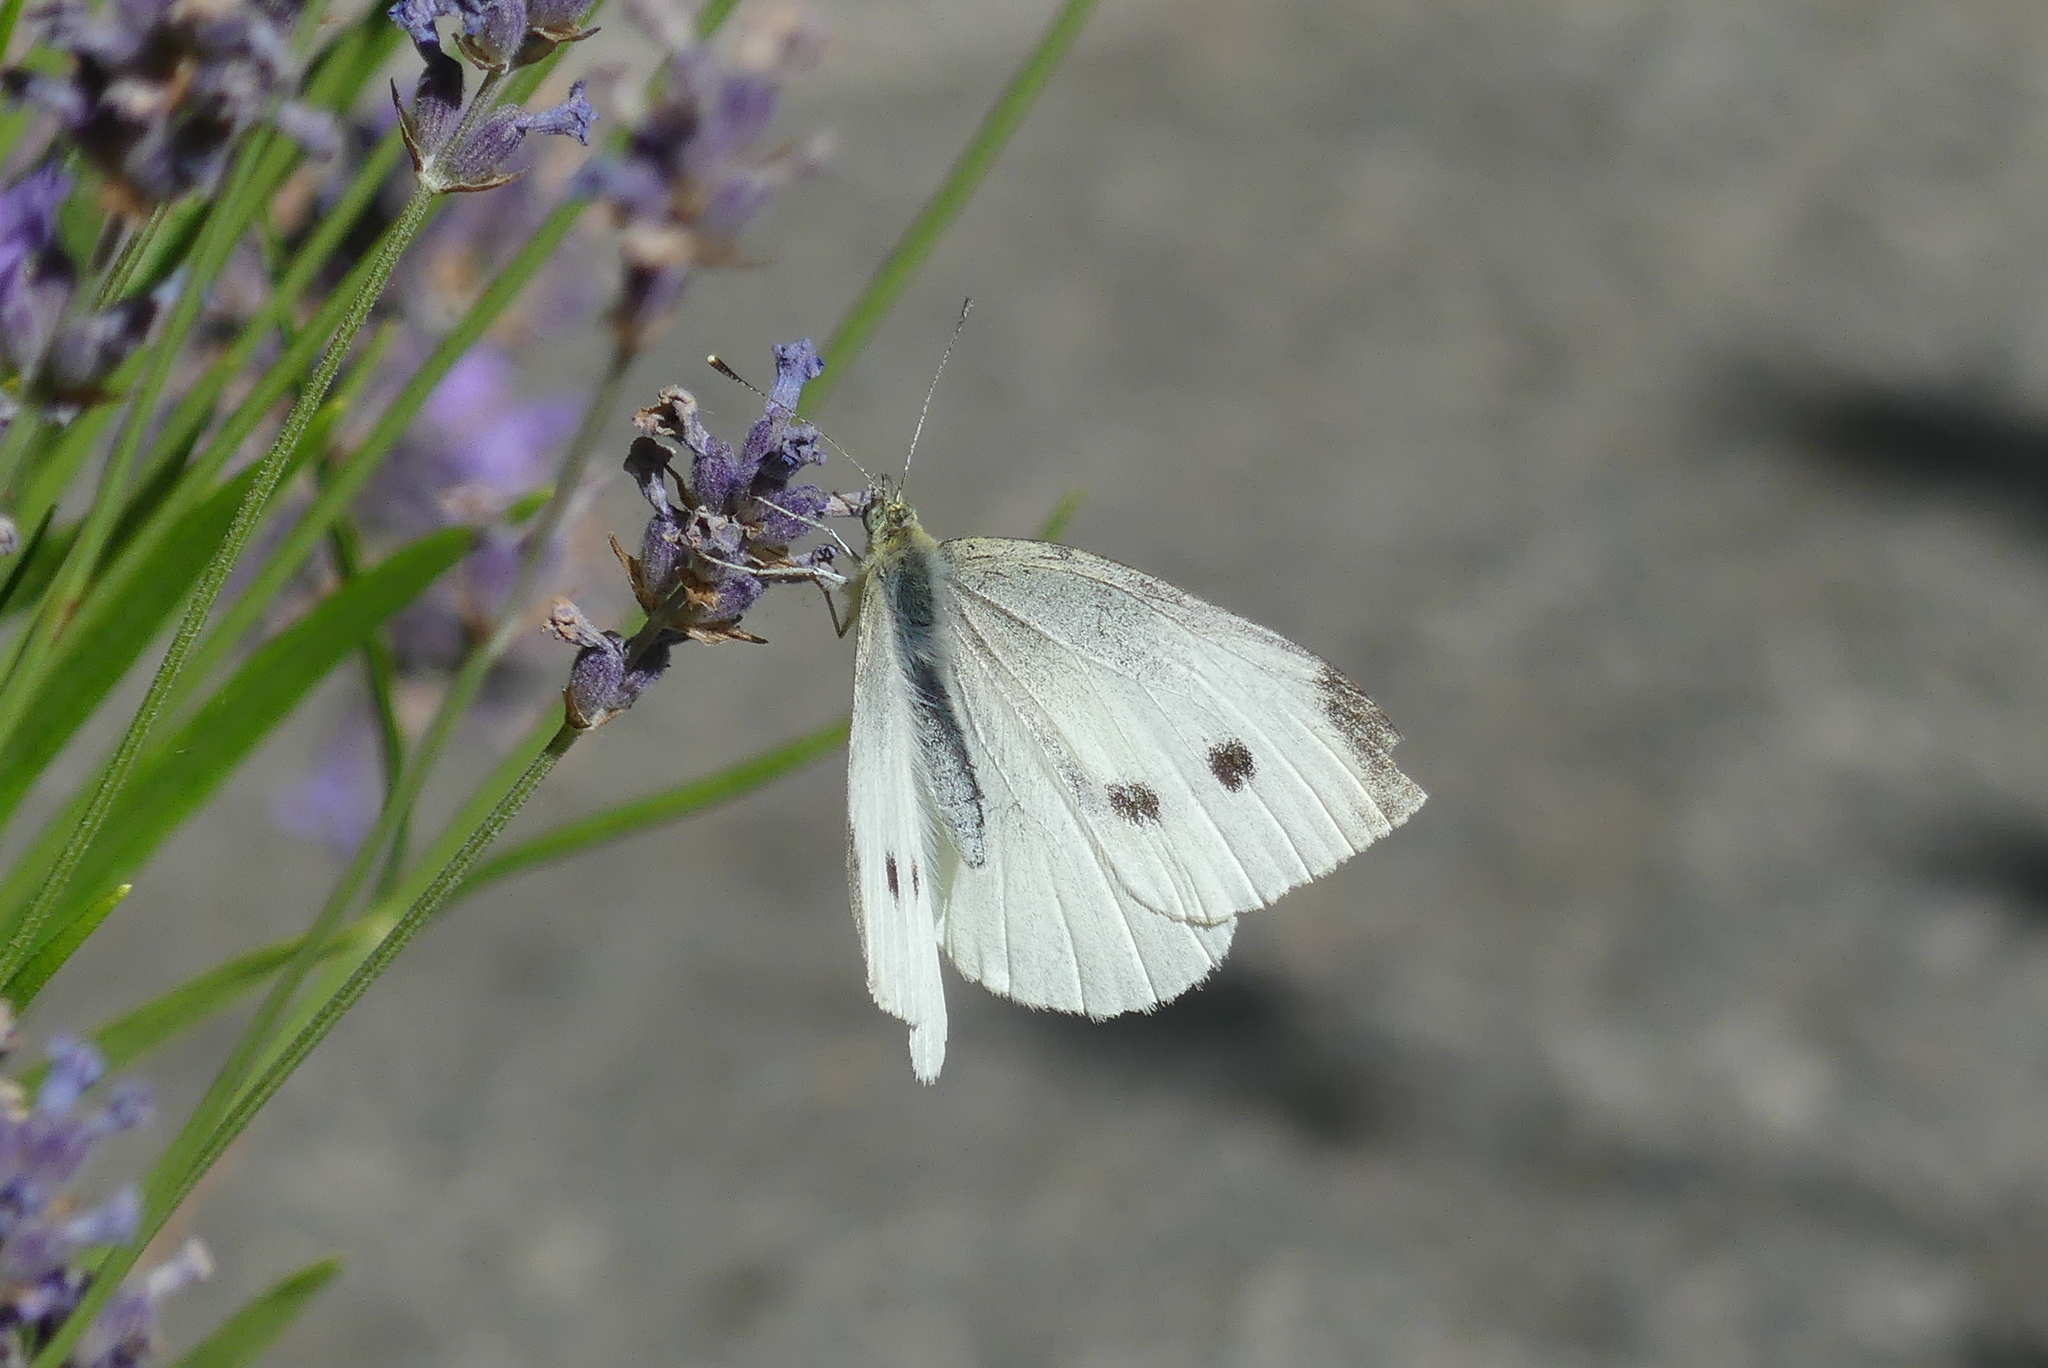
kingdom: Animalia
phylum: Arthropoda
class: Insecta
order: Lepidoptera
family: Pieridae
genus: Pieris
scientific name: Pieris rapae
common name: Small white
